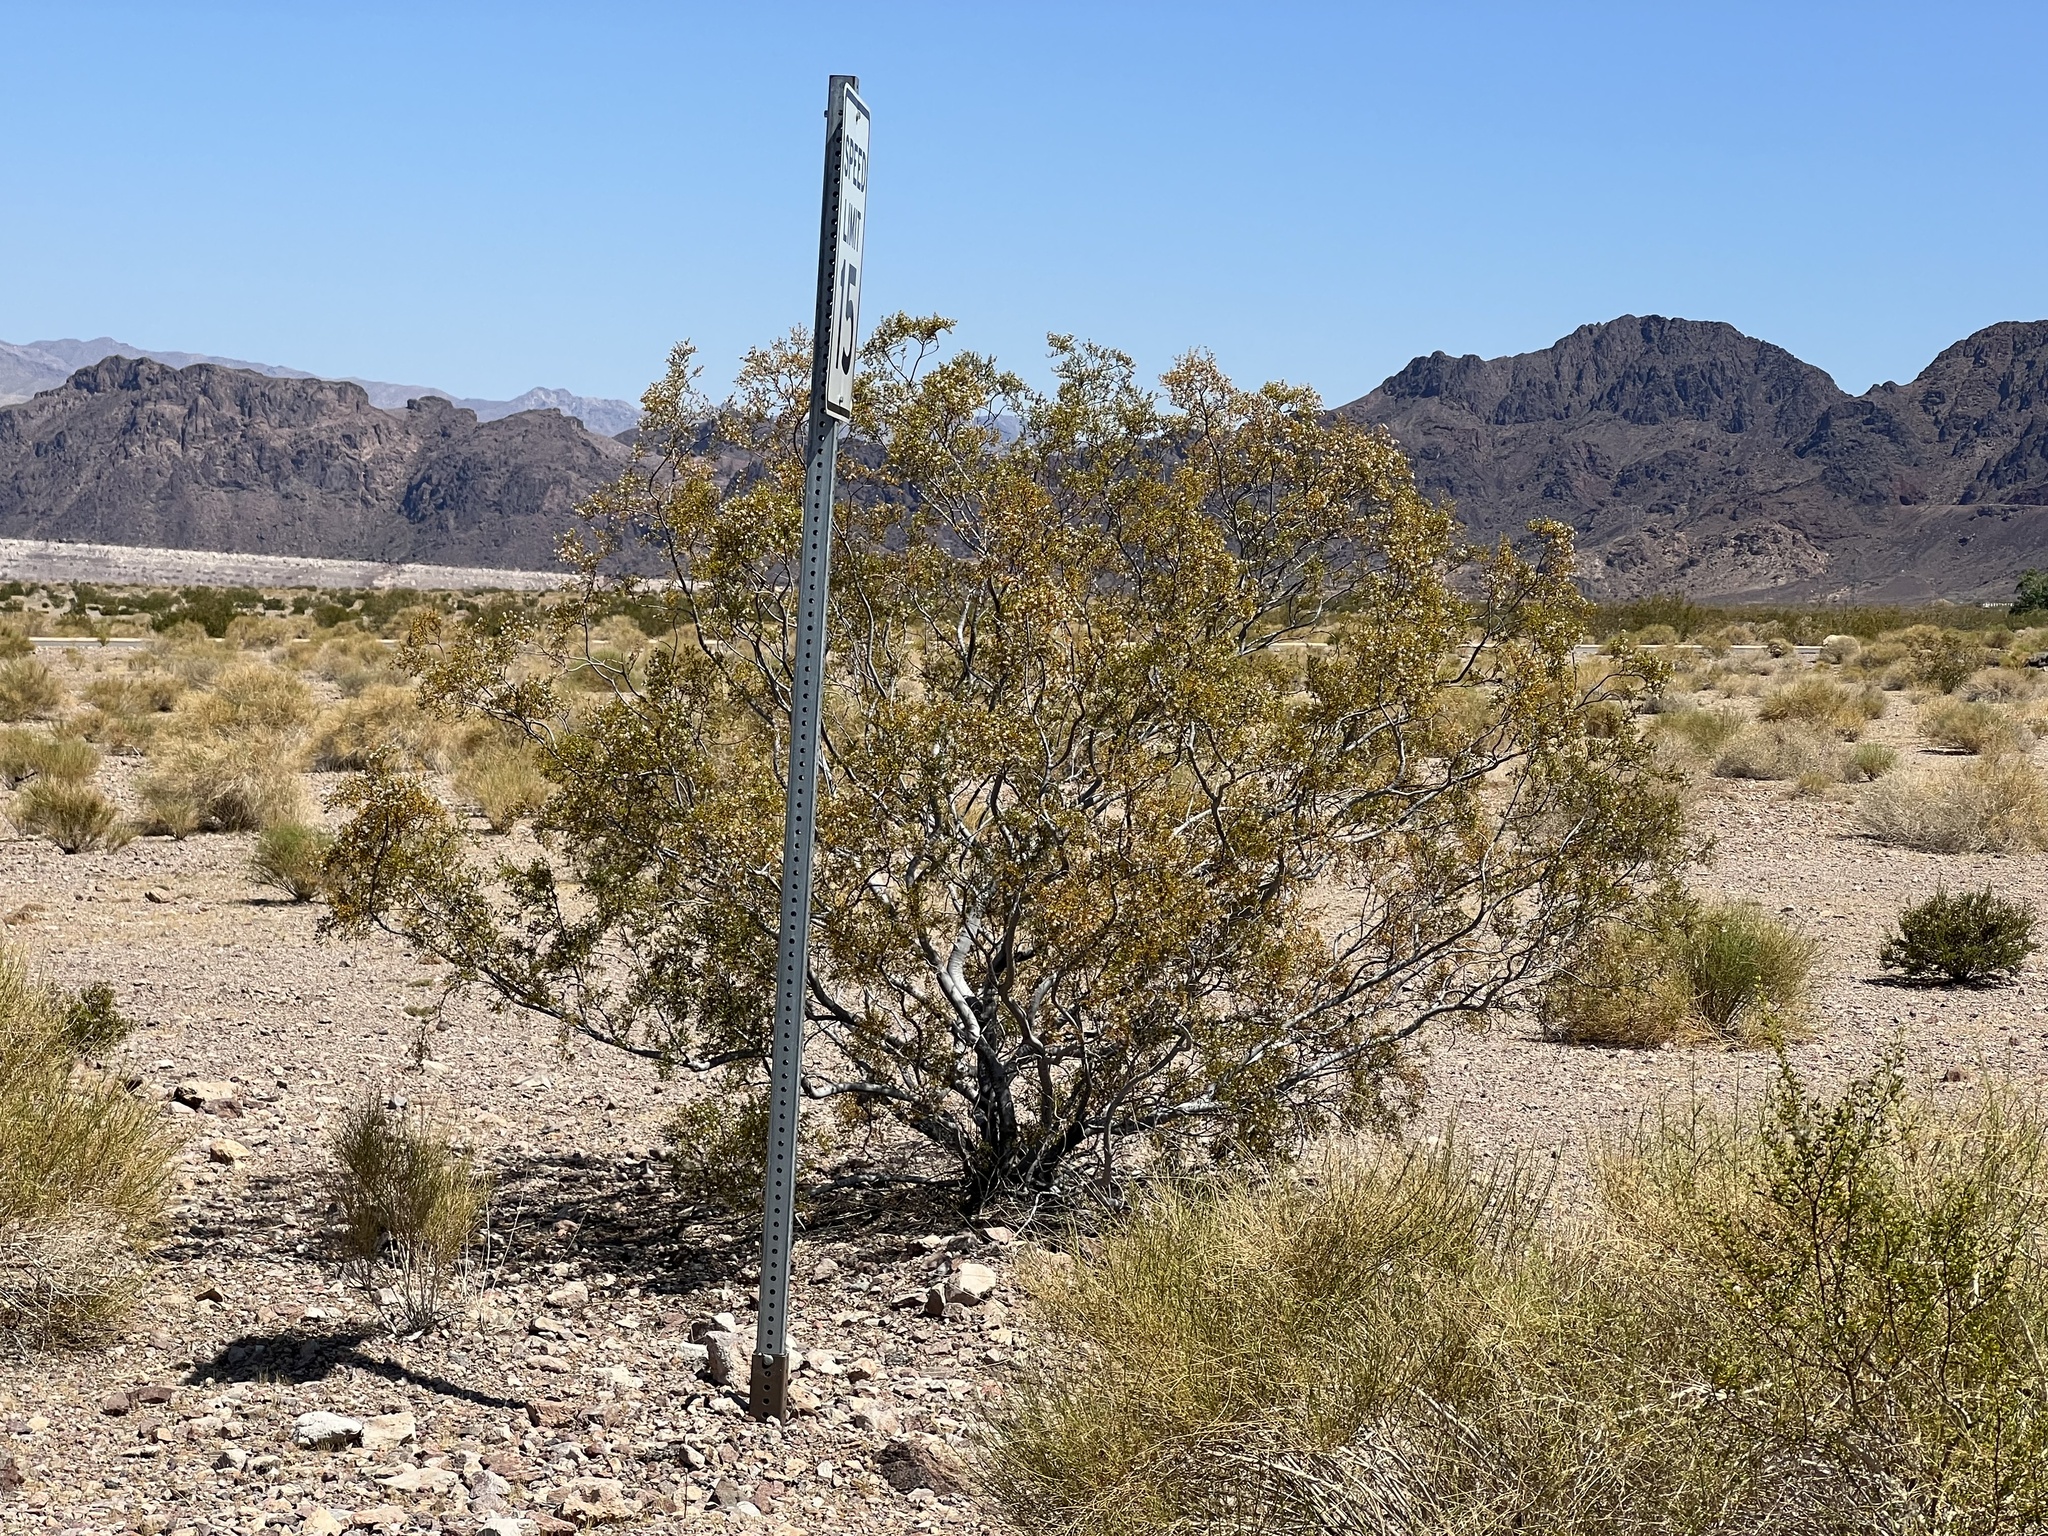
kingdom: Plantae
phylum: Tracheophyta
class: Magnoliopsida
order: Zygophyllales
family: Zygophyllaceae
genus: Larrea
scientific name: Larrea tridentata
